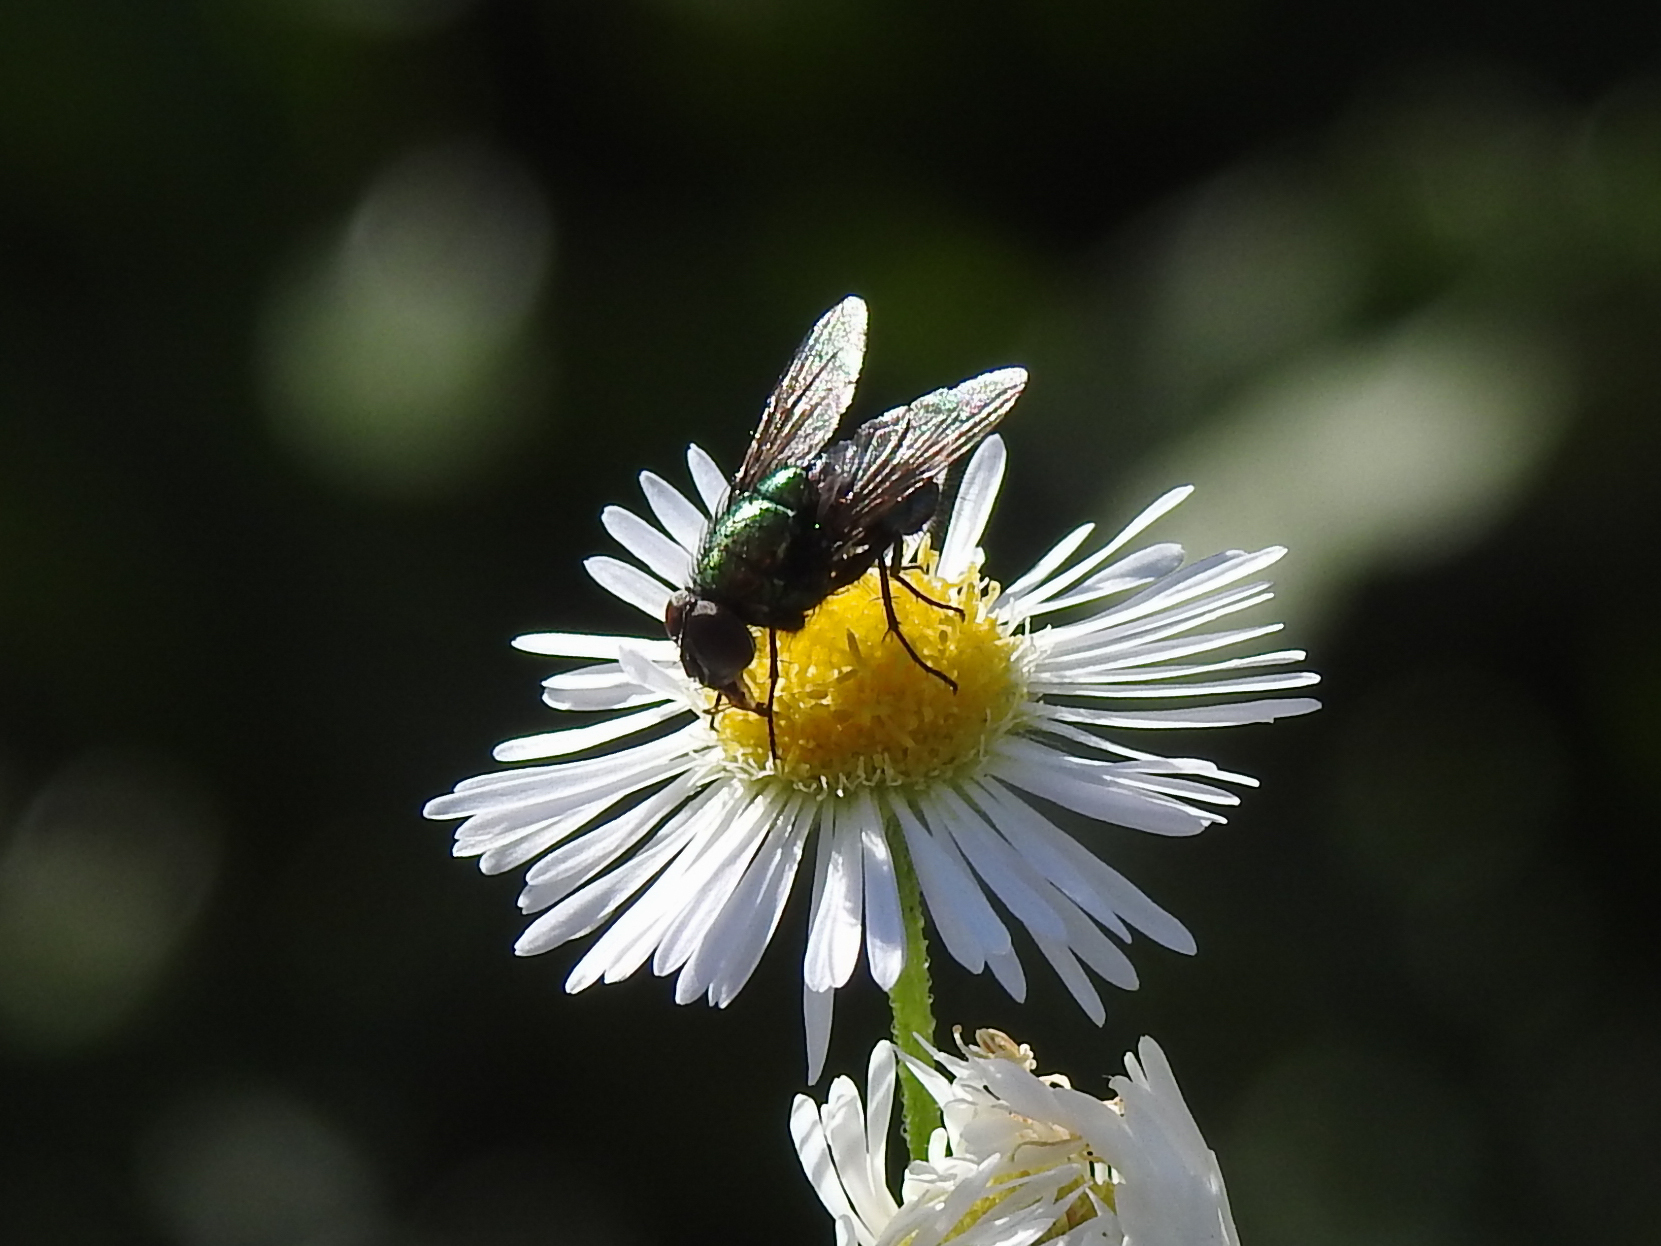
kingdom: Animalia
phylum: Arthropoda
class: Insecta
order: Diptera
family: Calliphoridae
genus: Lucilia
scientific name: Lucilia sericata
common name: Blow fly
